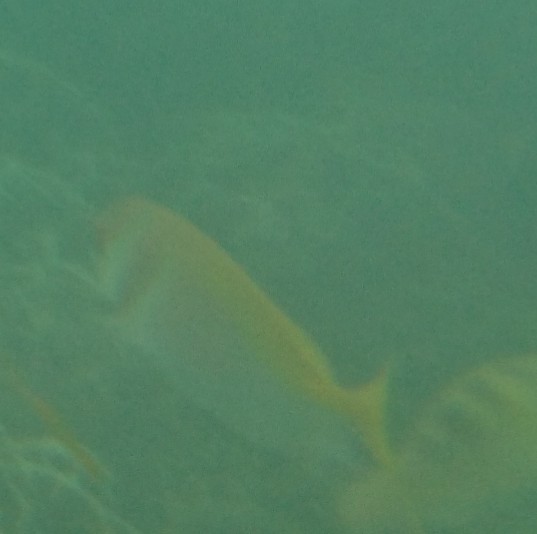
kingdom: Animalia
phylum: Chordata
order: Perciformes
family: Siganidae
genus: Siganus
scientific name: Siganus virgatus
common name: Barhead spinefoot
